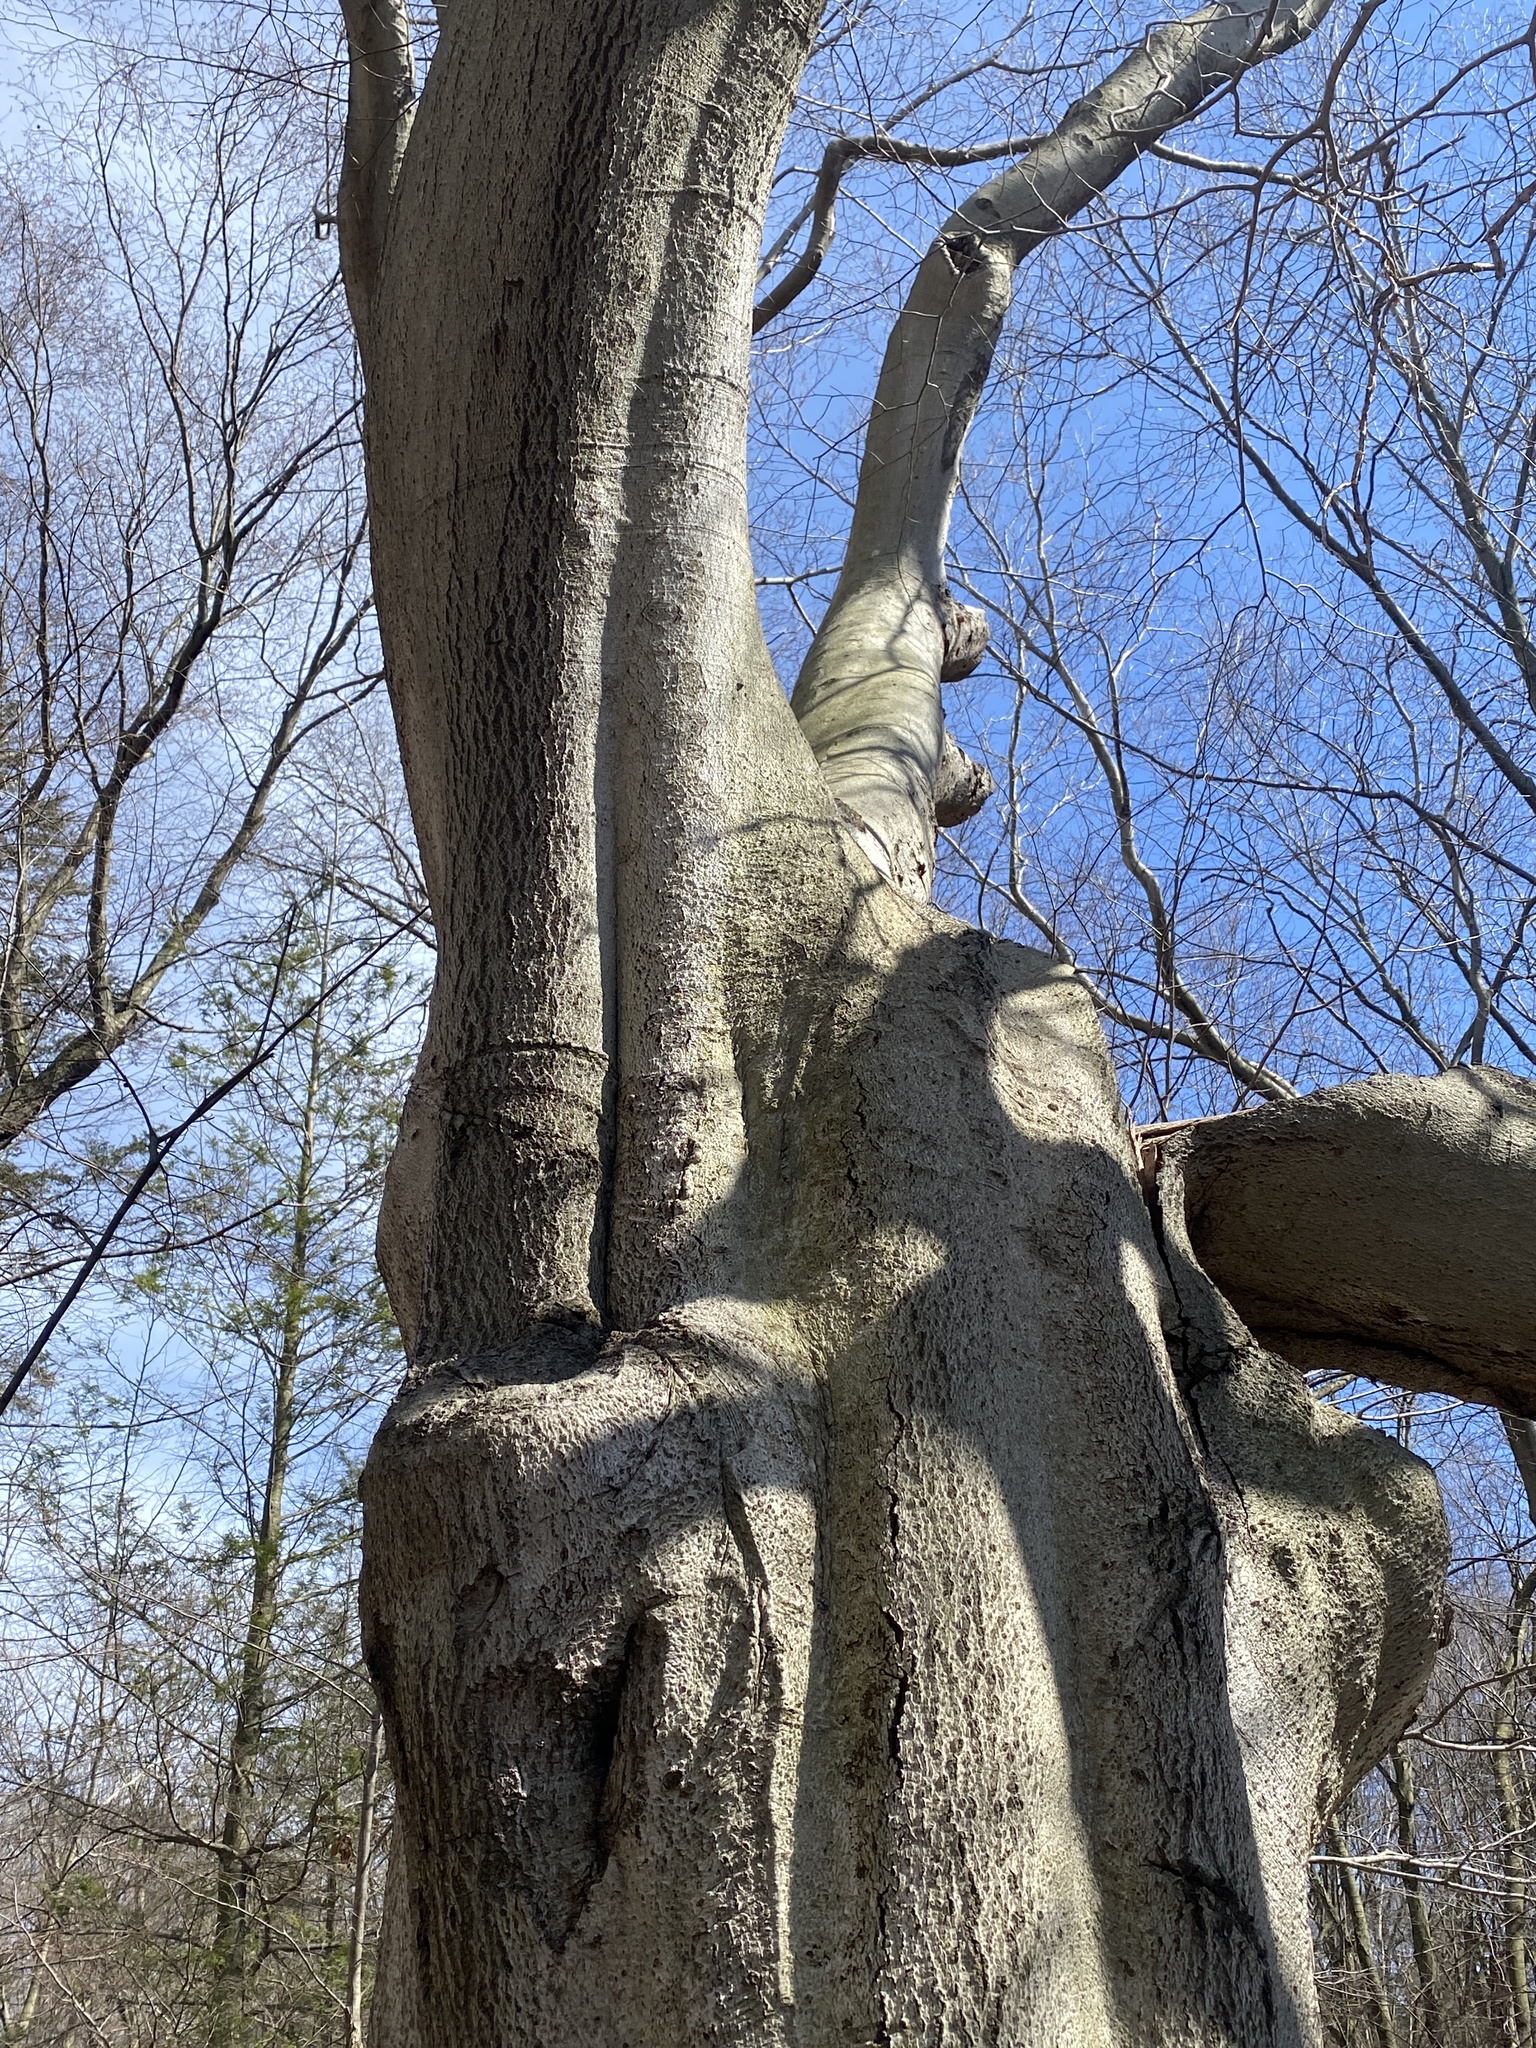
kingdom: Plantae
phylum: Tracheophyta
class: Magnoliopsida
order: Fagales
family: Fagaceae
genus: Fagus
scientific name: Fagus grandifolia
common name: American beech
